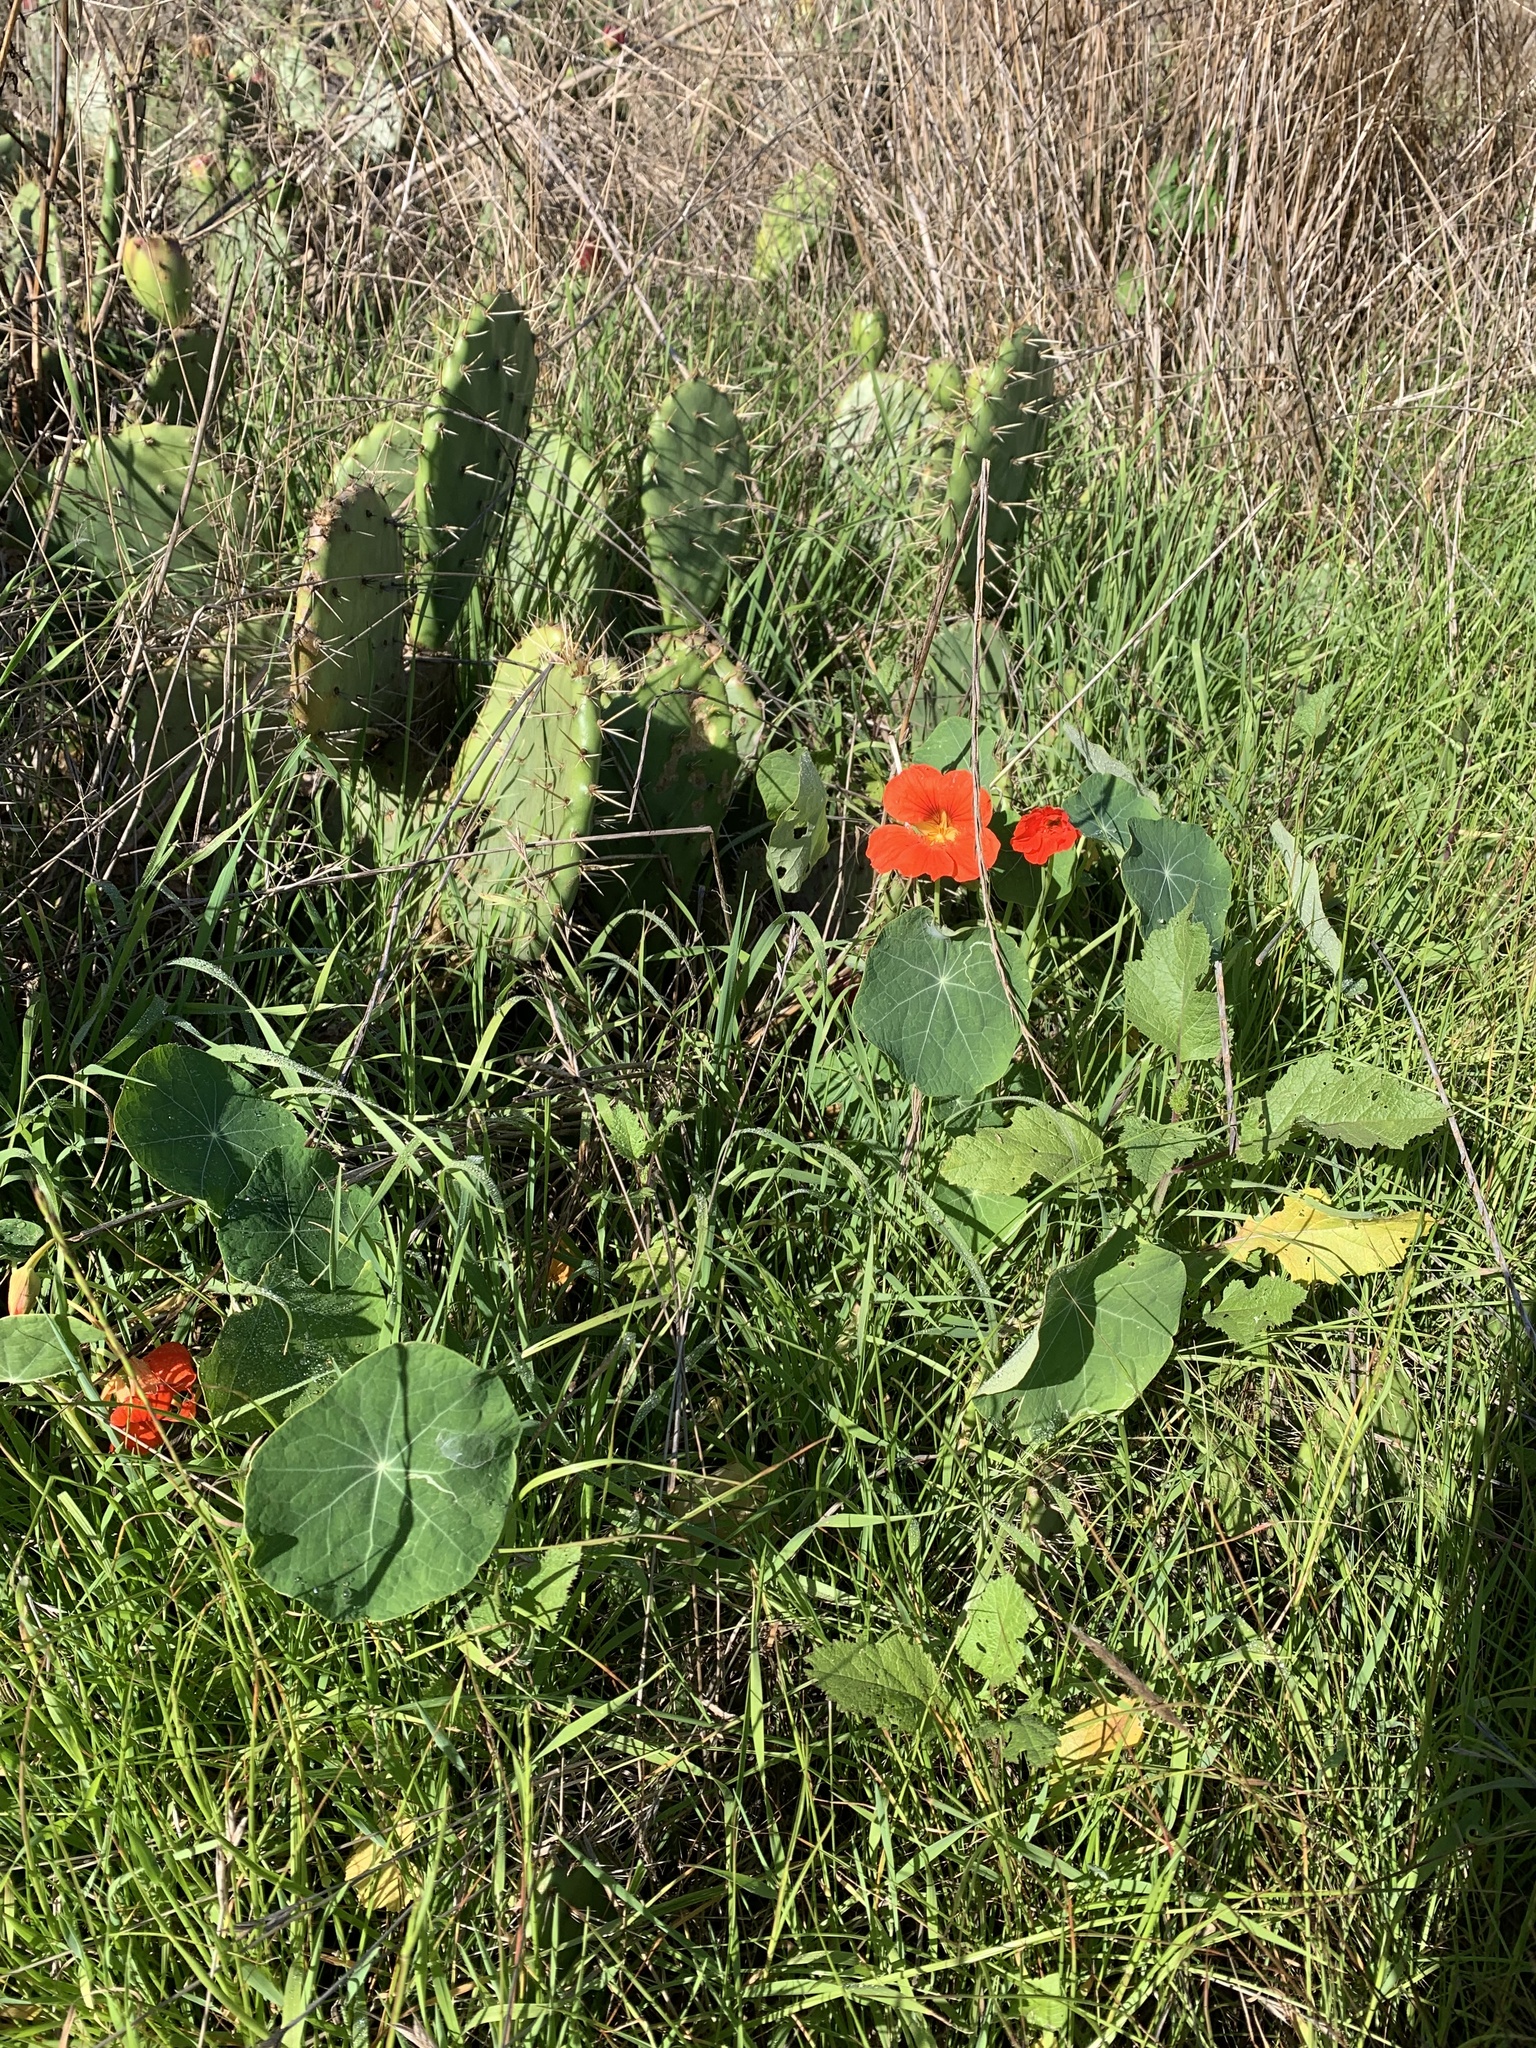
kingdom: Plantae
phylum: Tracheophyta
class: Magnoliopsida
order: Brassicales
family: Tropaeolaceae
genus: Tropaeolum
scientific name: Tropaeolum majus
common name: Nasturtium
